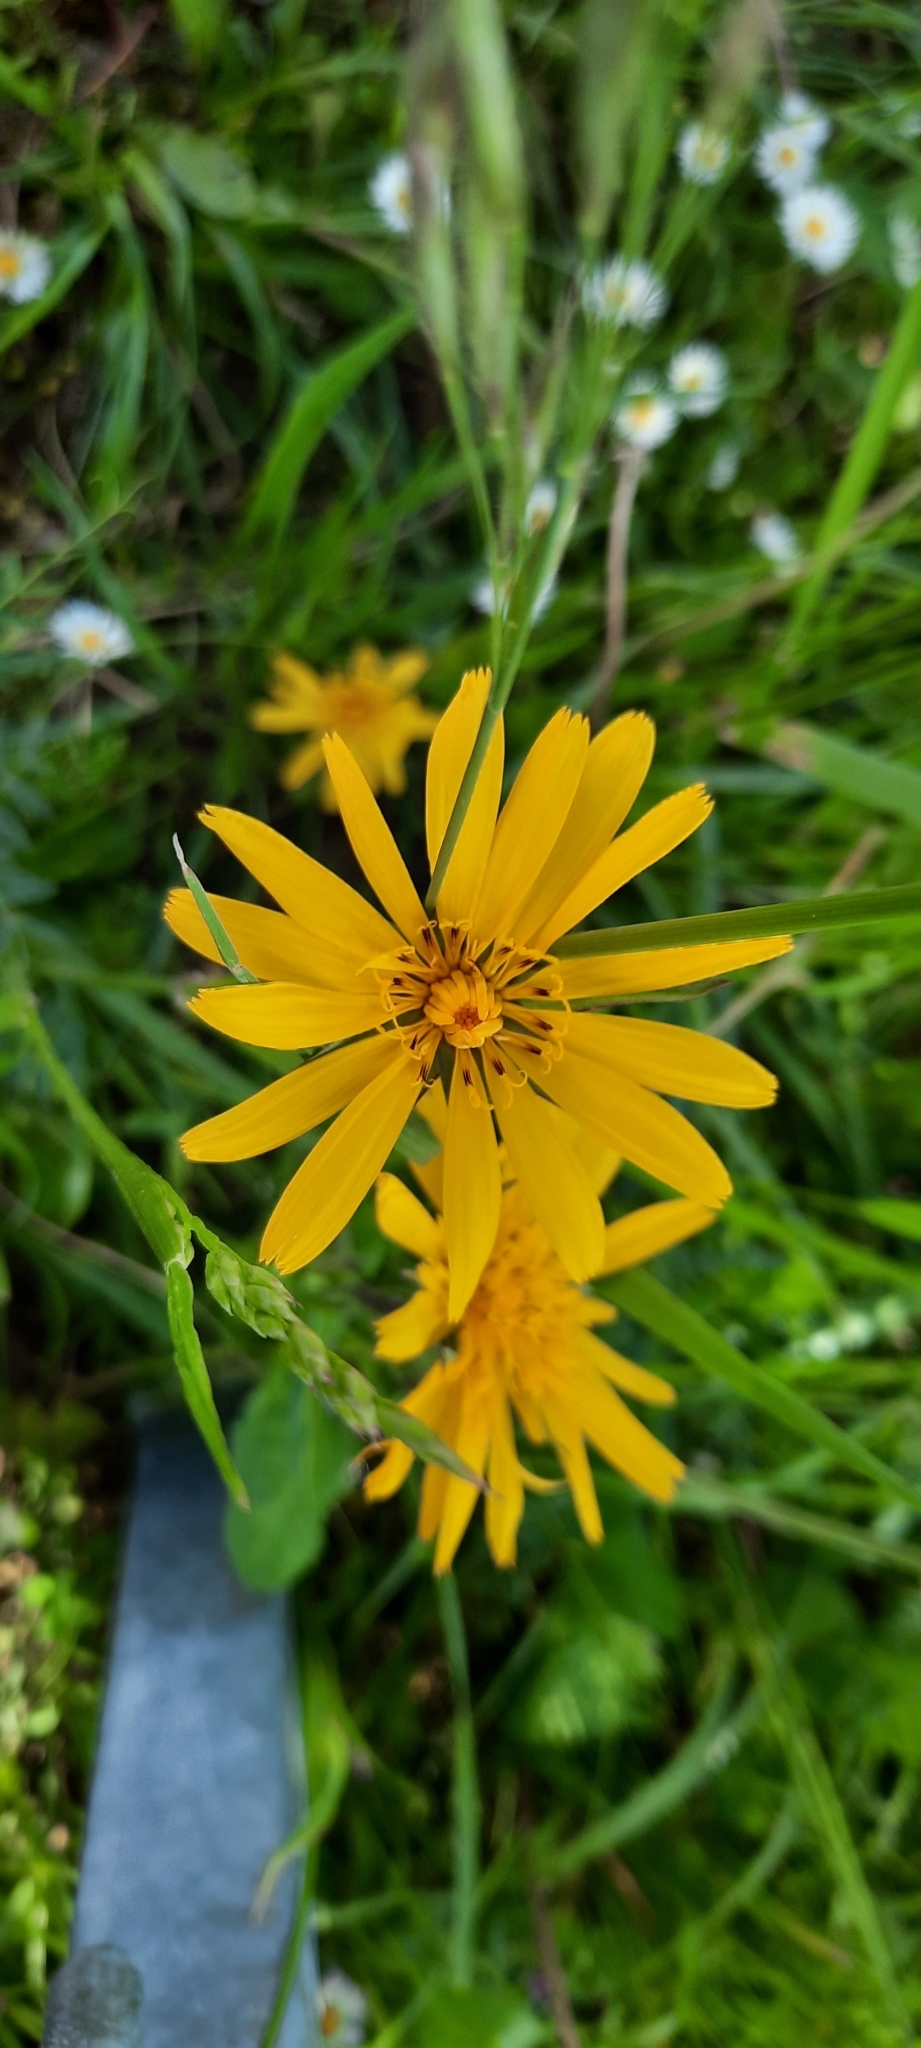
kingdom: Plantae
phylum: Tracheophyta
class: Magnoliopsida
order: Asterales
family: Asteraceae
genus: Tragopogon
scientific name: Tragopogon pratensis
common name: Goat's-beard
